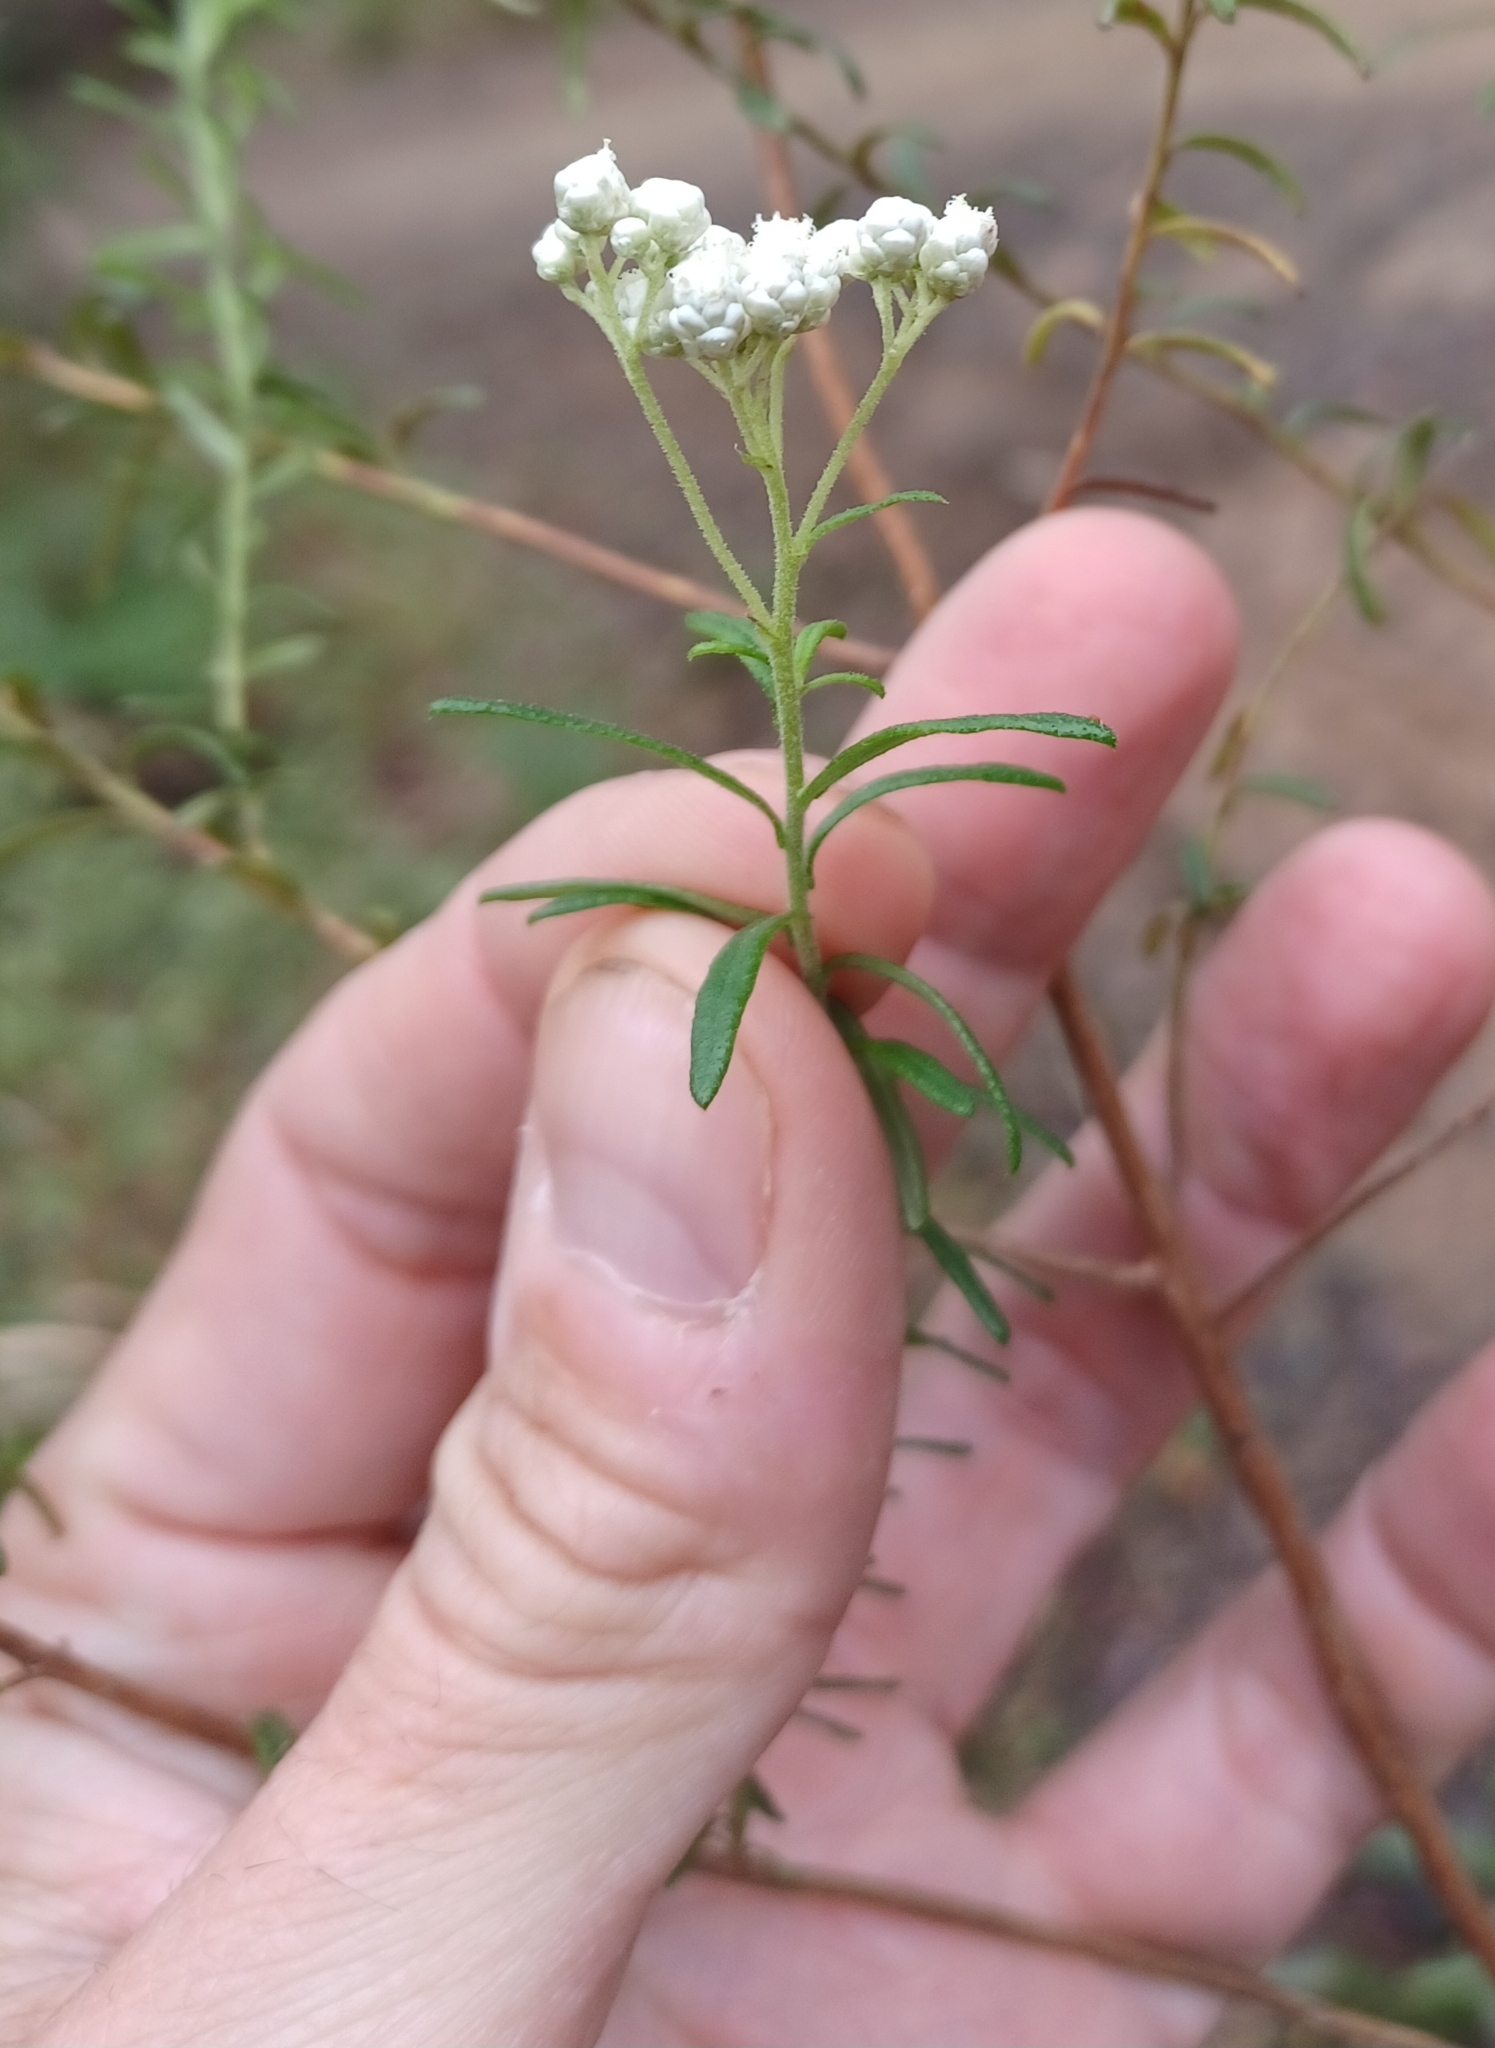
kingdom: Plantae
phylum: Tracheophyta
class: Magnoliopsida
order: Asterales
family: Asteraceae
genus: Ozothamnus
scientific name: Ozothamnus diosmifolius
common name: White-dogwood
